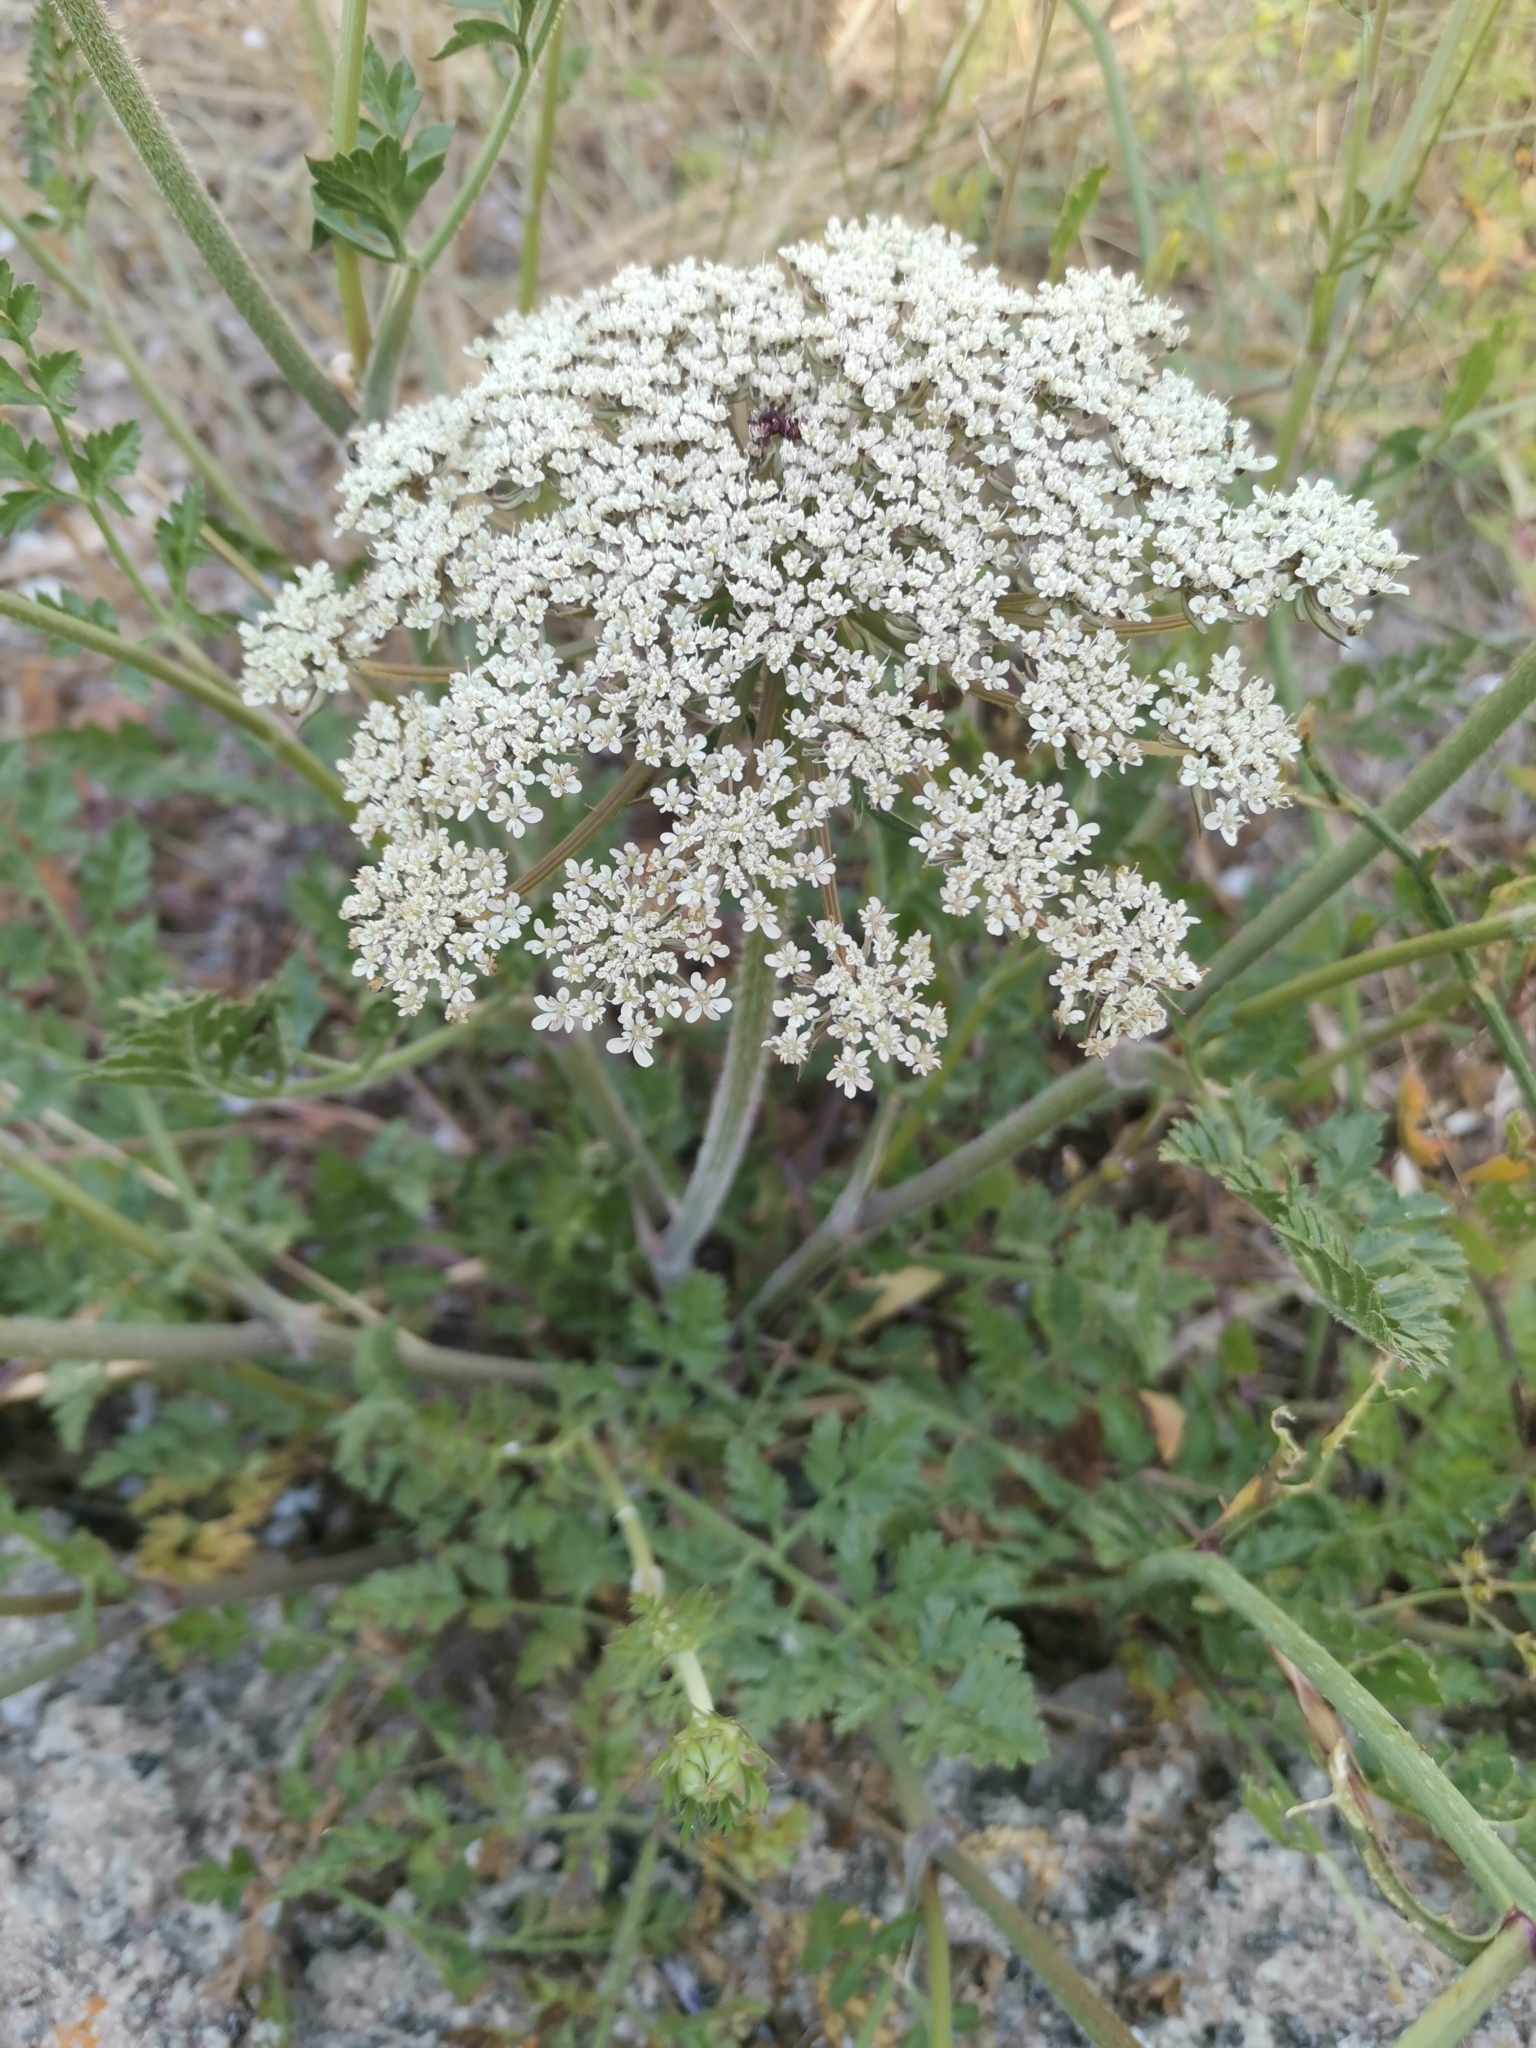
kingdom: Plantae
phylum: Tracheophyta
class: Magnoliopsida
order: Apiales
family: Apiaceae
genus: Daucus
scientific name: Daucus carota
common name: Wild carrot
